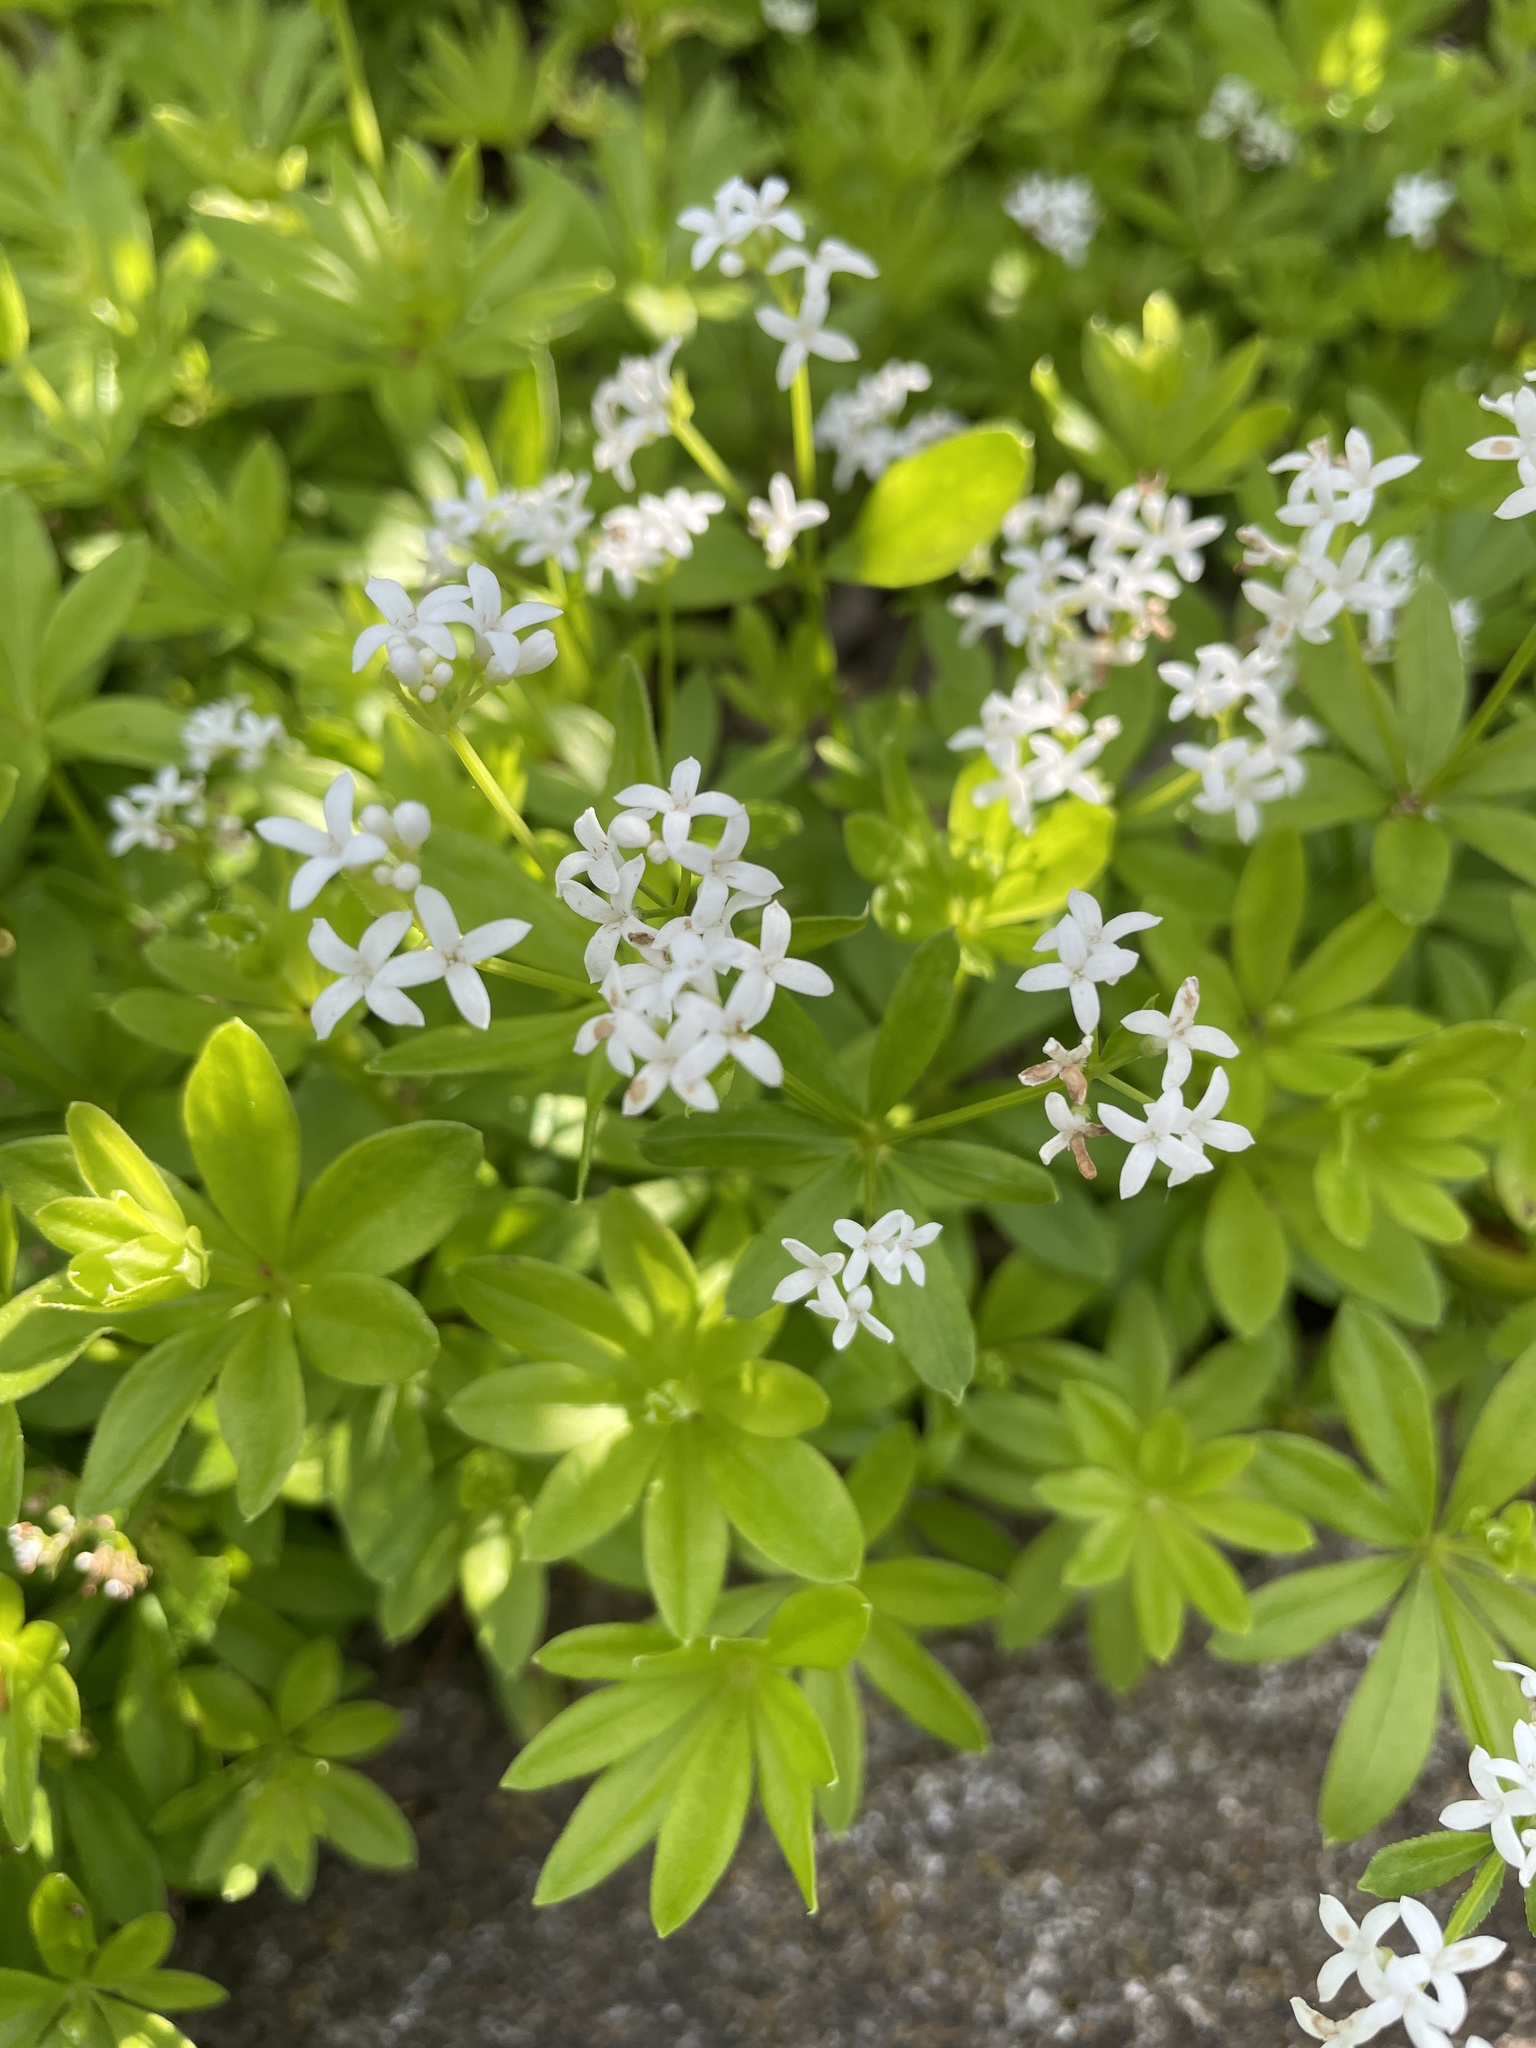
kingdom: Plantae
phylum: Tracheophyta
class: Magnoliopsida
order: Gentianales
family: Rubiaceae
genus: Galium
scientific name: Galium odoratum
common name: Sweet woodruff
